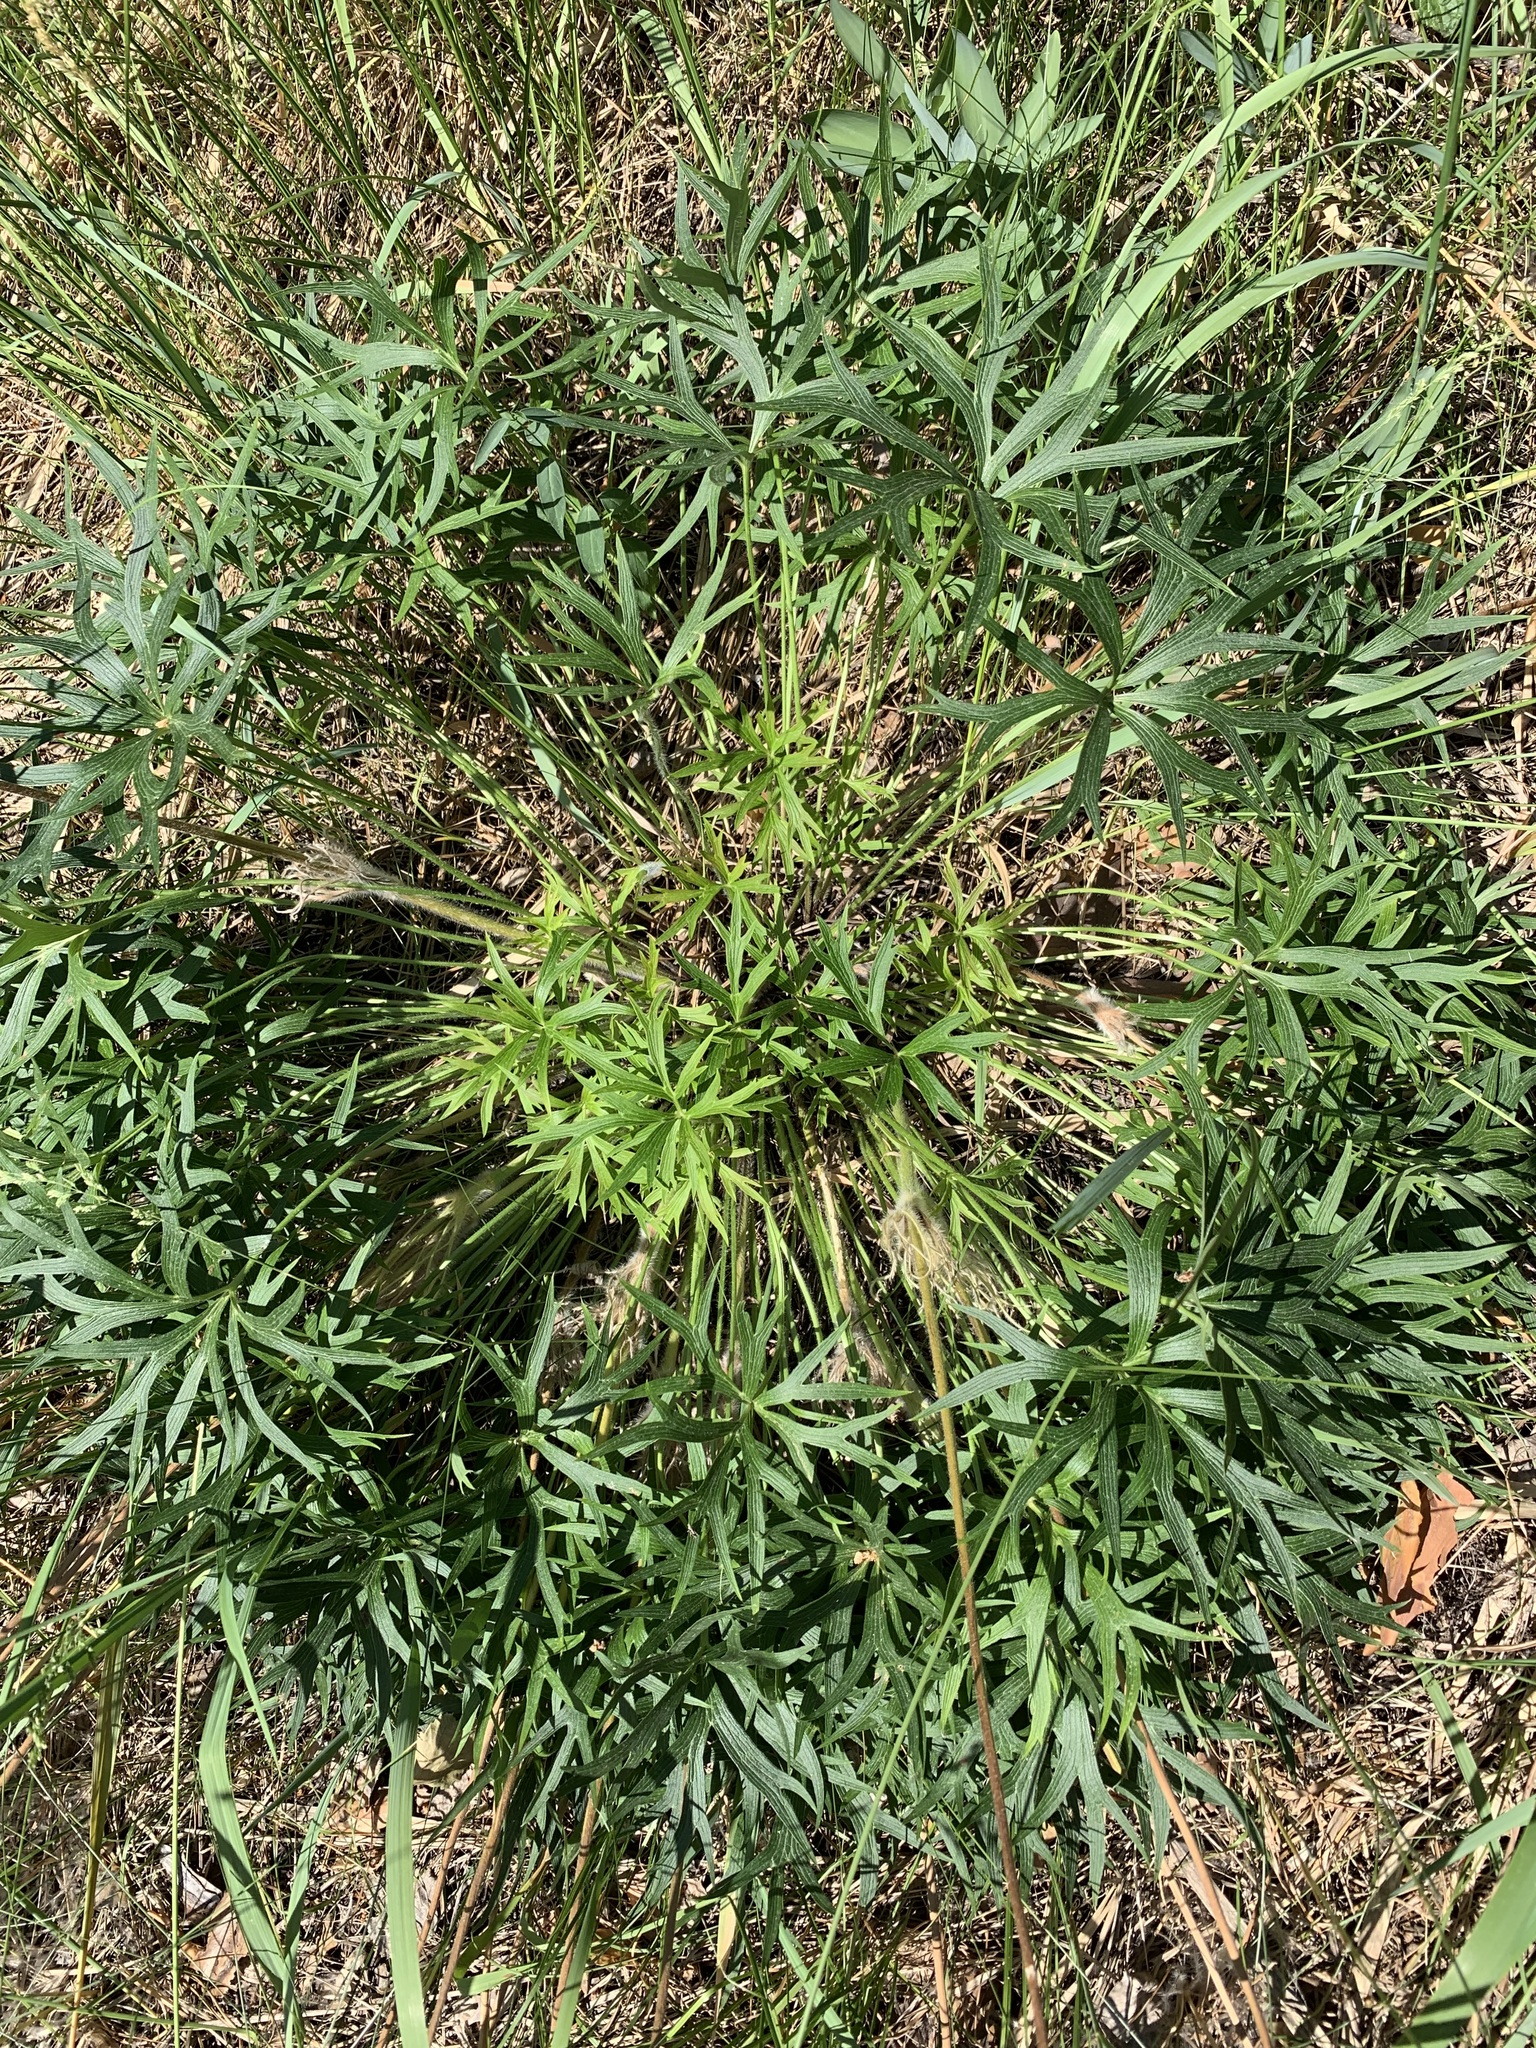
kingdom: Plantae
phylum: Tracheophyta
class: Magnoliopsida
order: Ranunculales
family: Ranunculaceae
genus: Pulsatilla
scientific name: Pulsatilla patens
